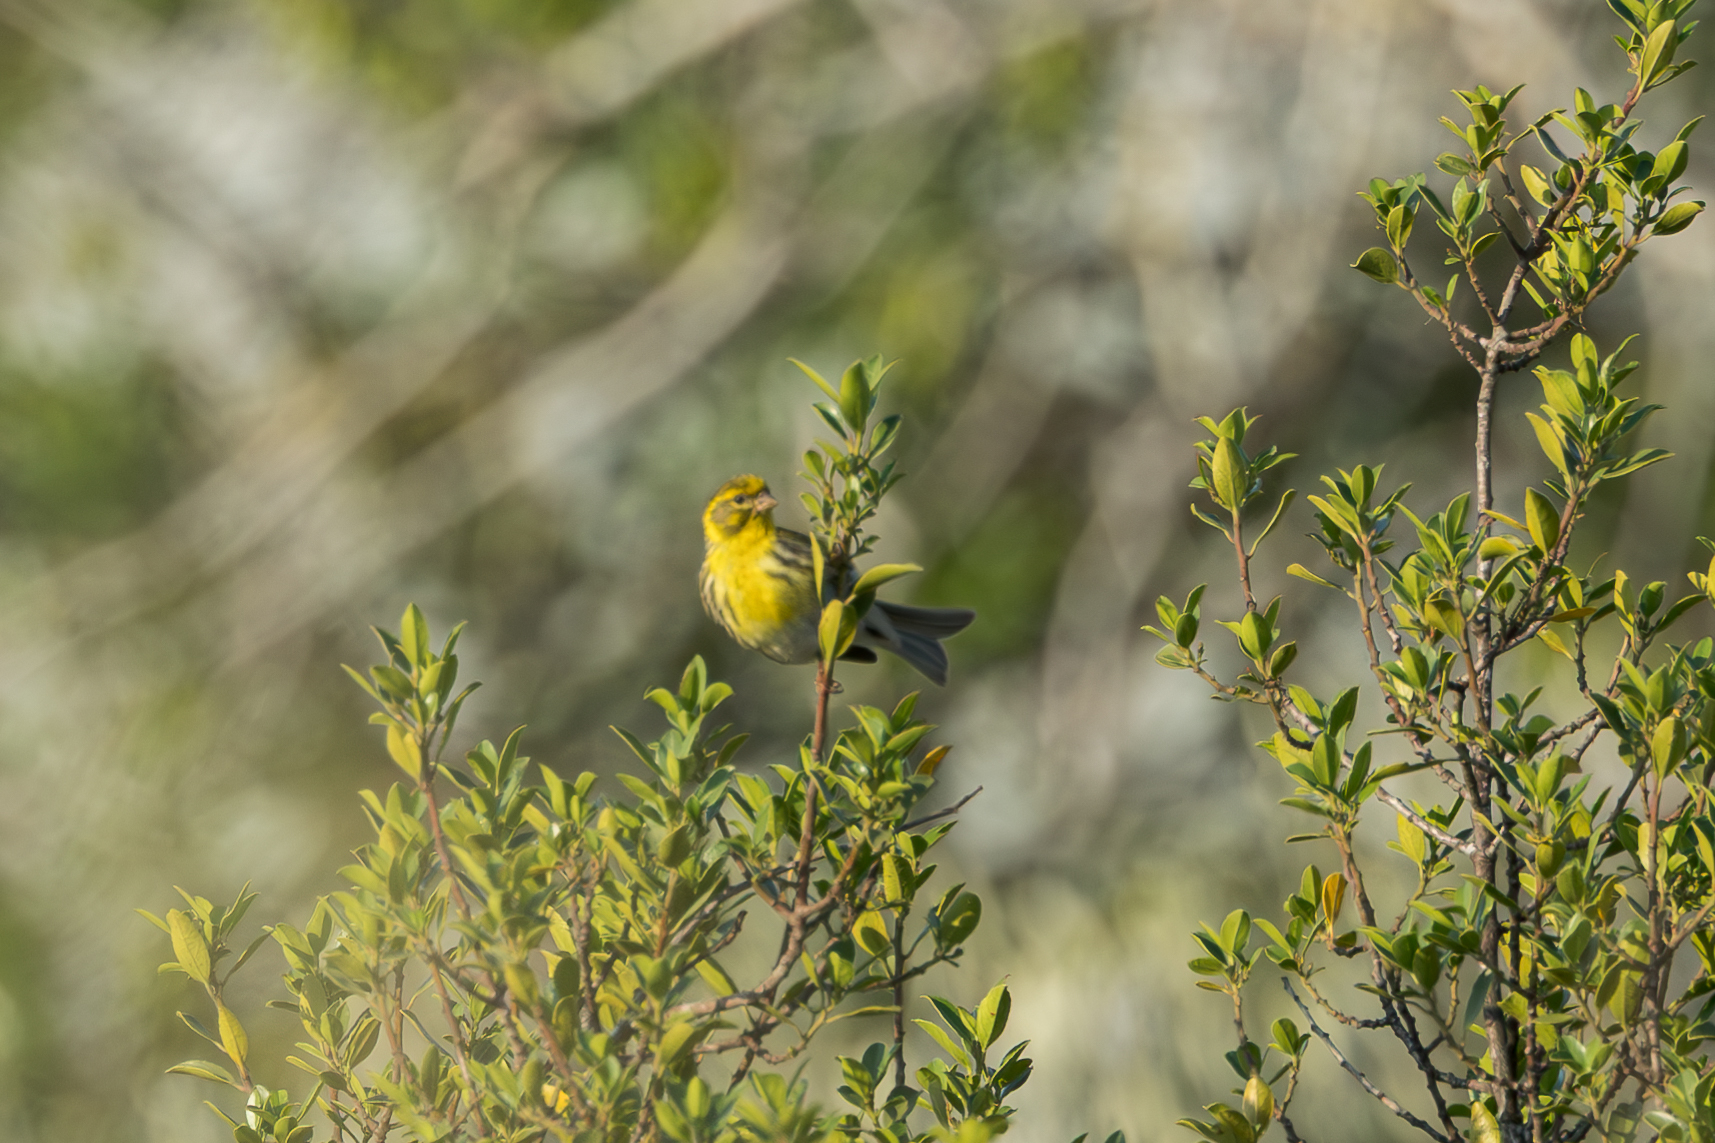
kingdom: Animalia
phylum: Chordata
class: Aves
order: Passeriformes
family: Fringillidae
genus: Serinus
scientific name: Serinus serinus
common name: European serin
